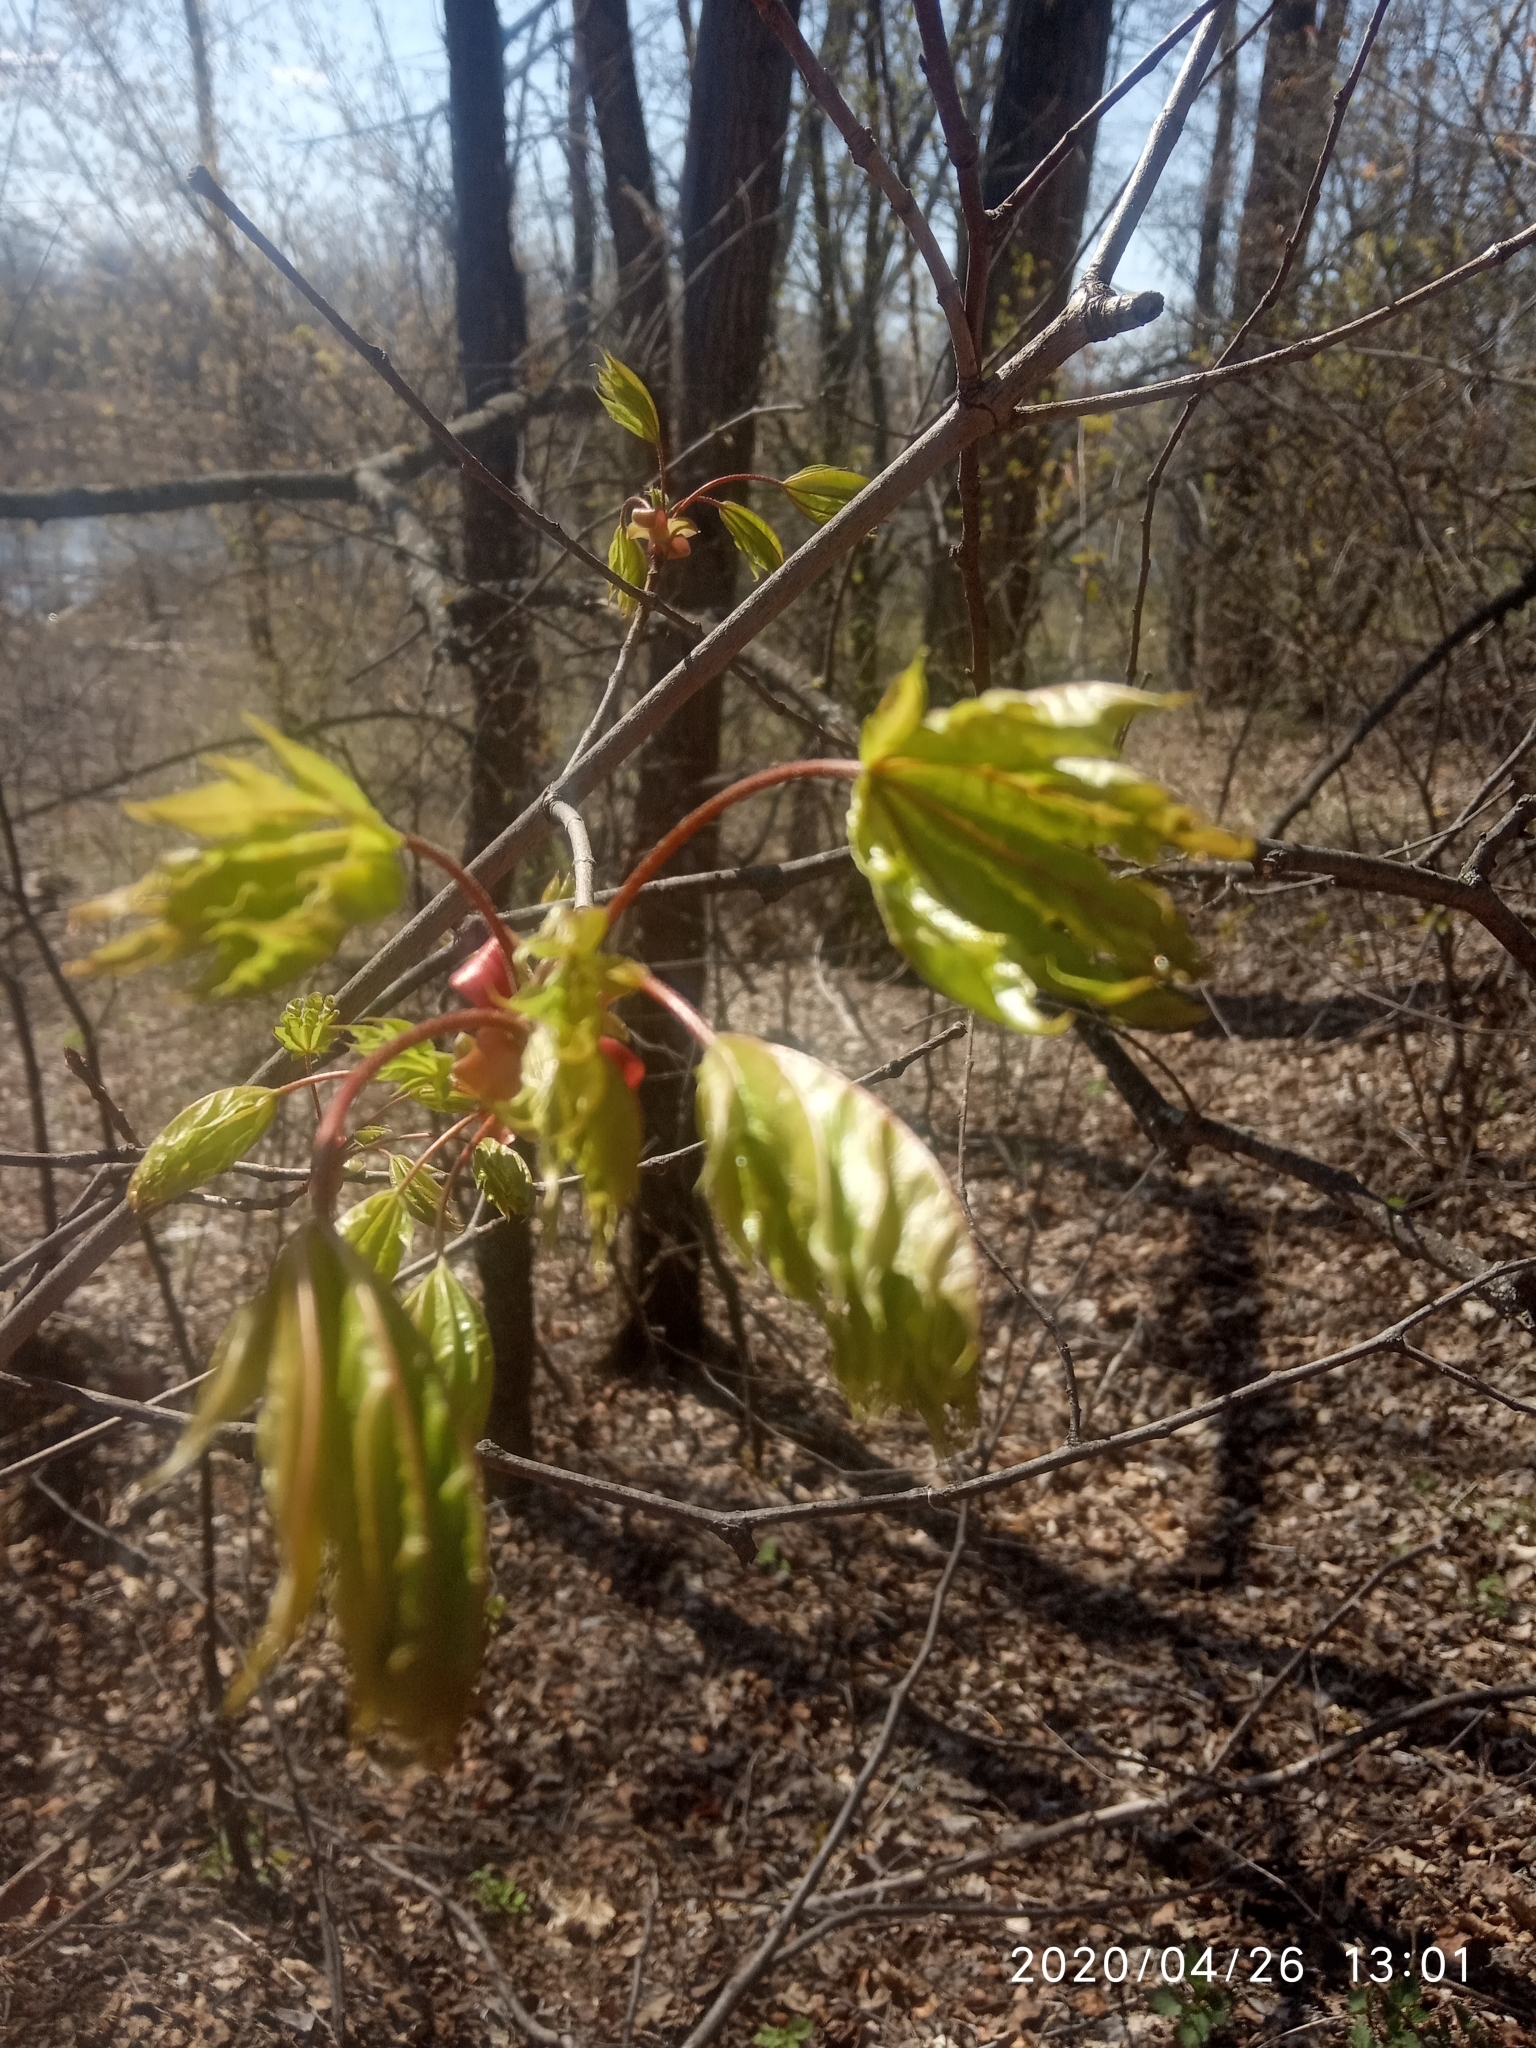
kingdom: Plantae
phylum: Tracheophyta
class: Magnoliopsida
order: Sapindales
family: Sapindaceae
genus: Acer
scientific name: Acer platanoides
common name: Norway maple
